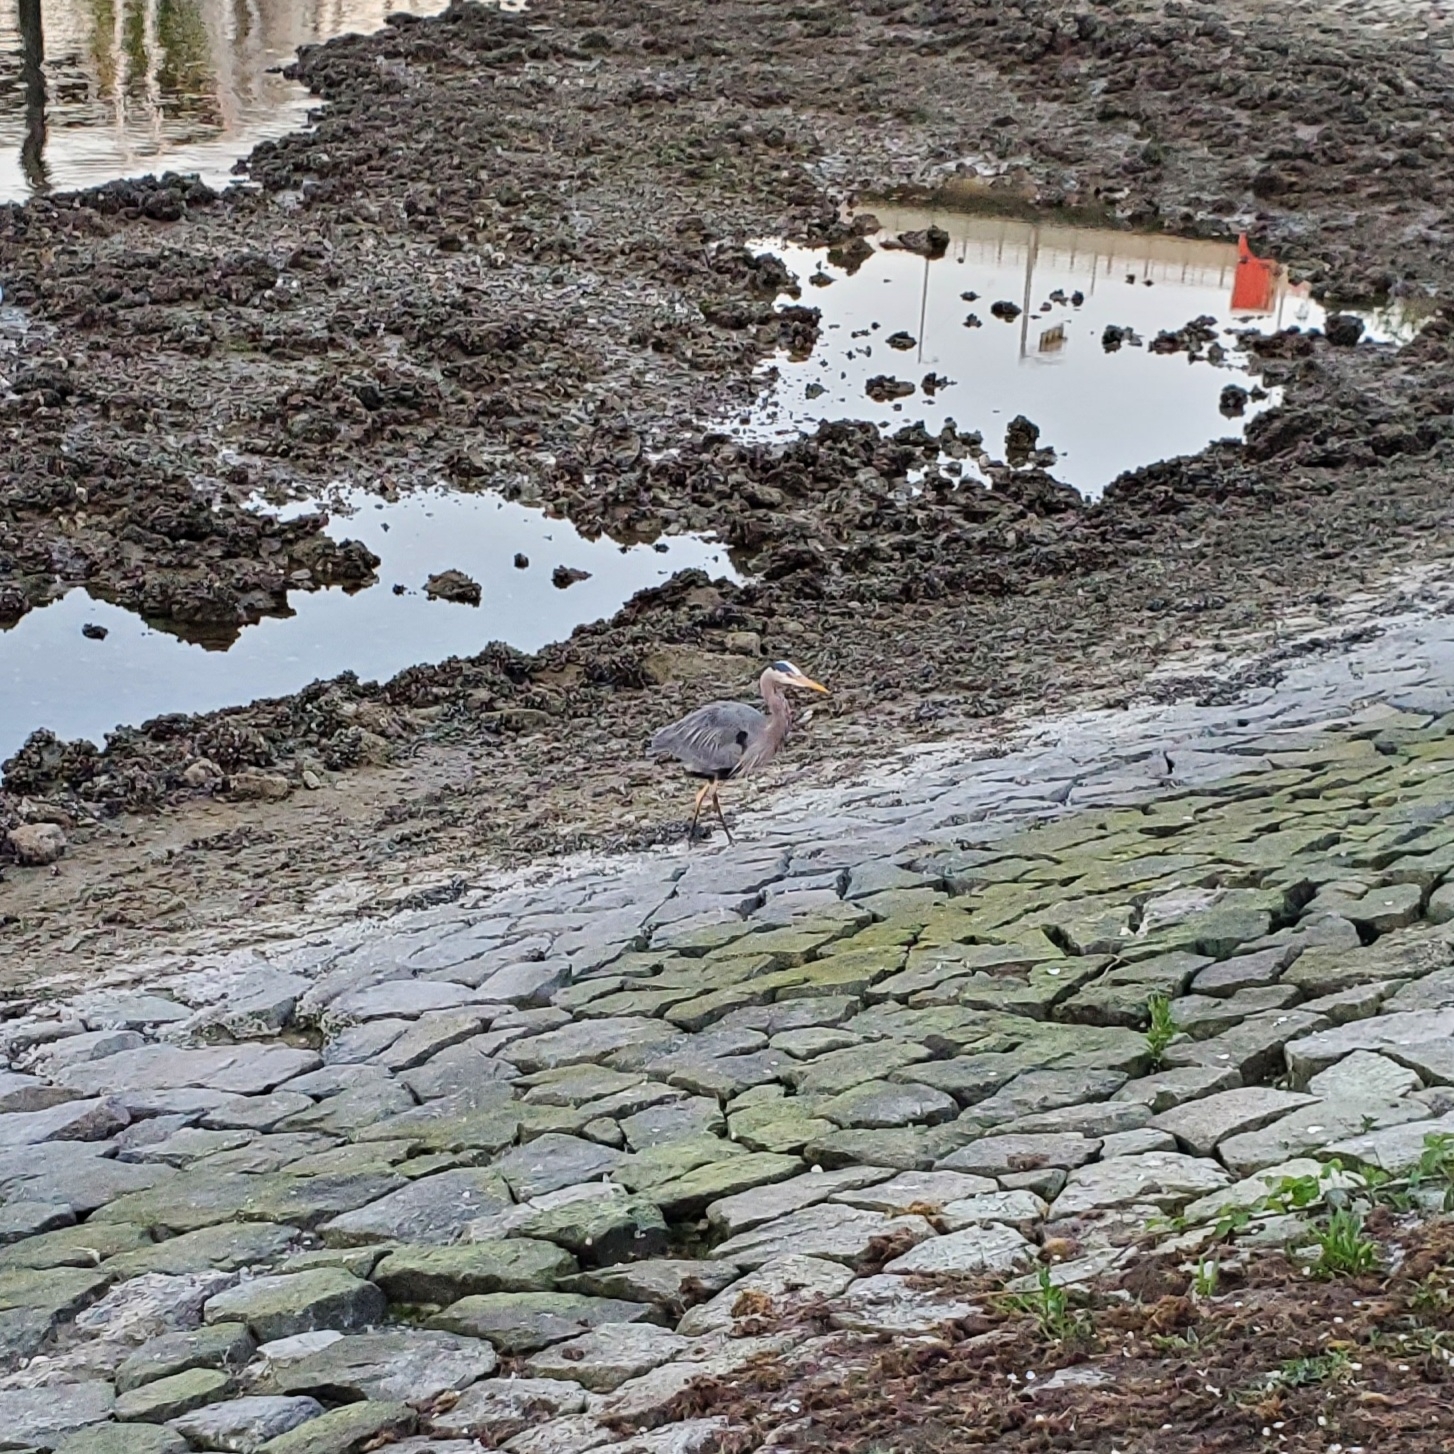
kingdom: Animalia
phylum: Chordata
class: Aves
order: Pelecaniformes
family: Ardeidae
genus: Ardea
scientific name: Ardea herodias
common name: Great blue heron
